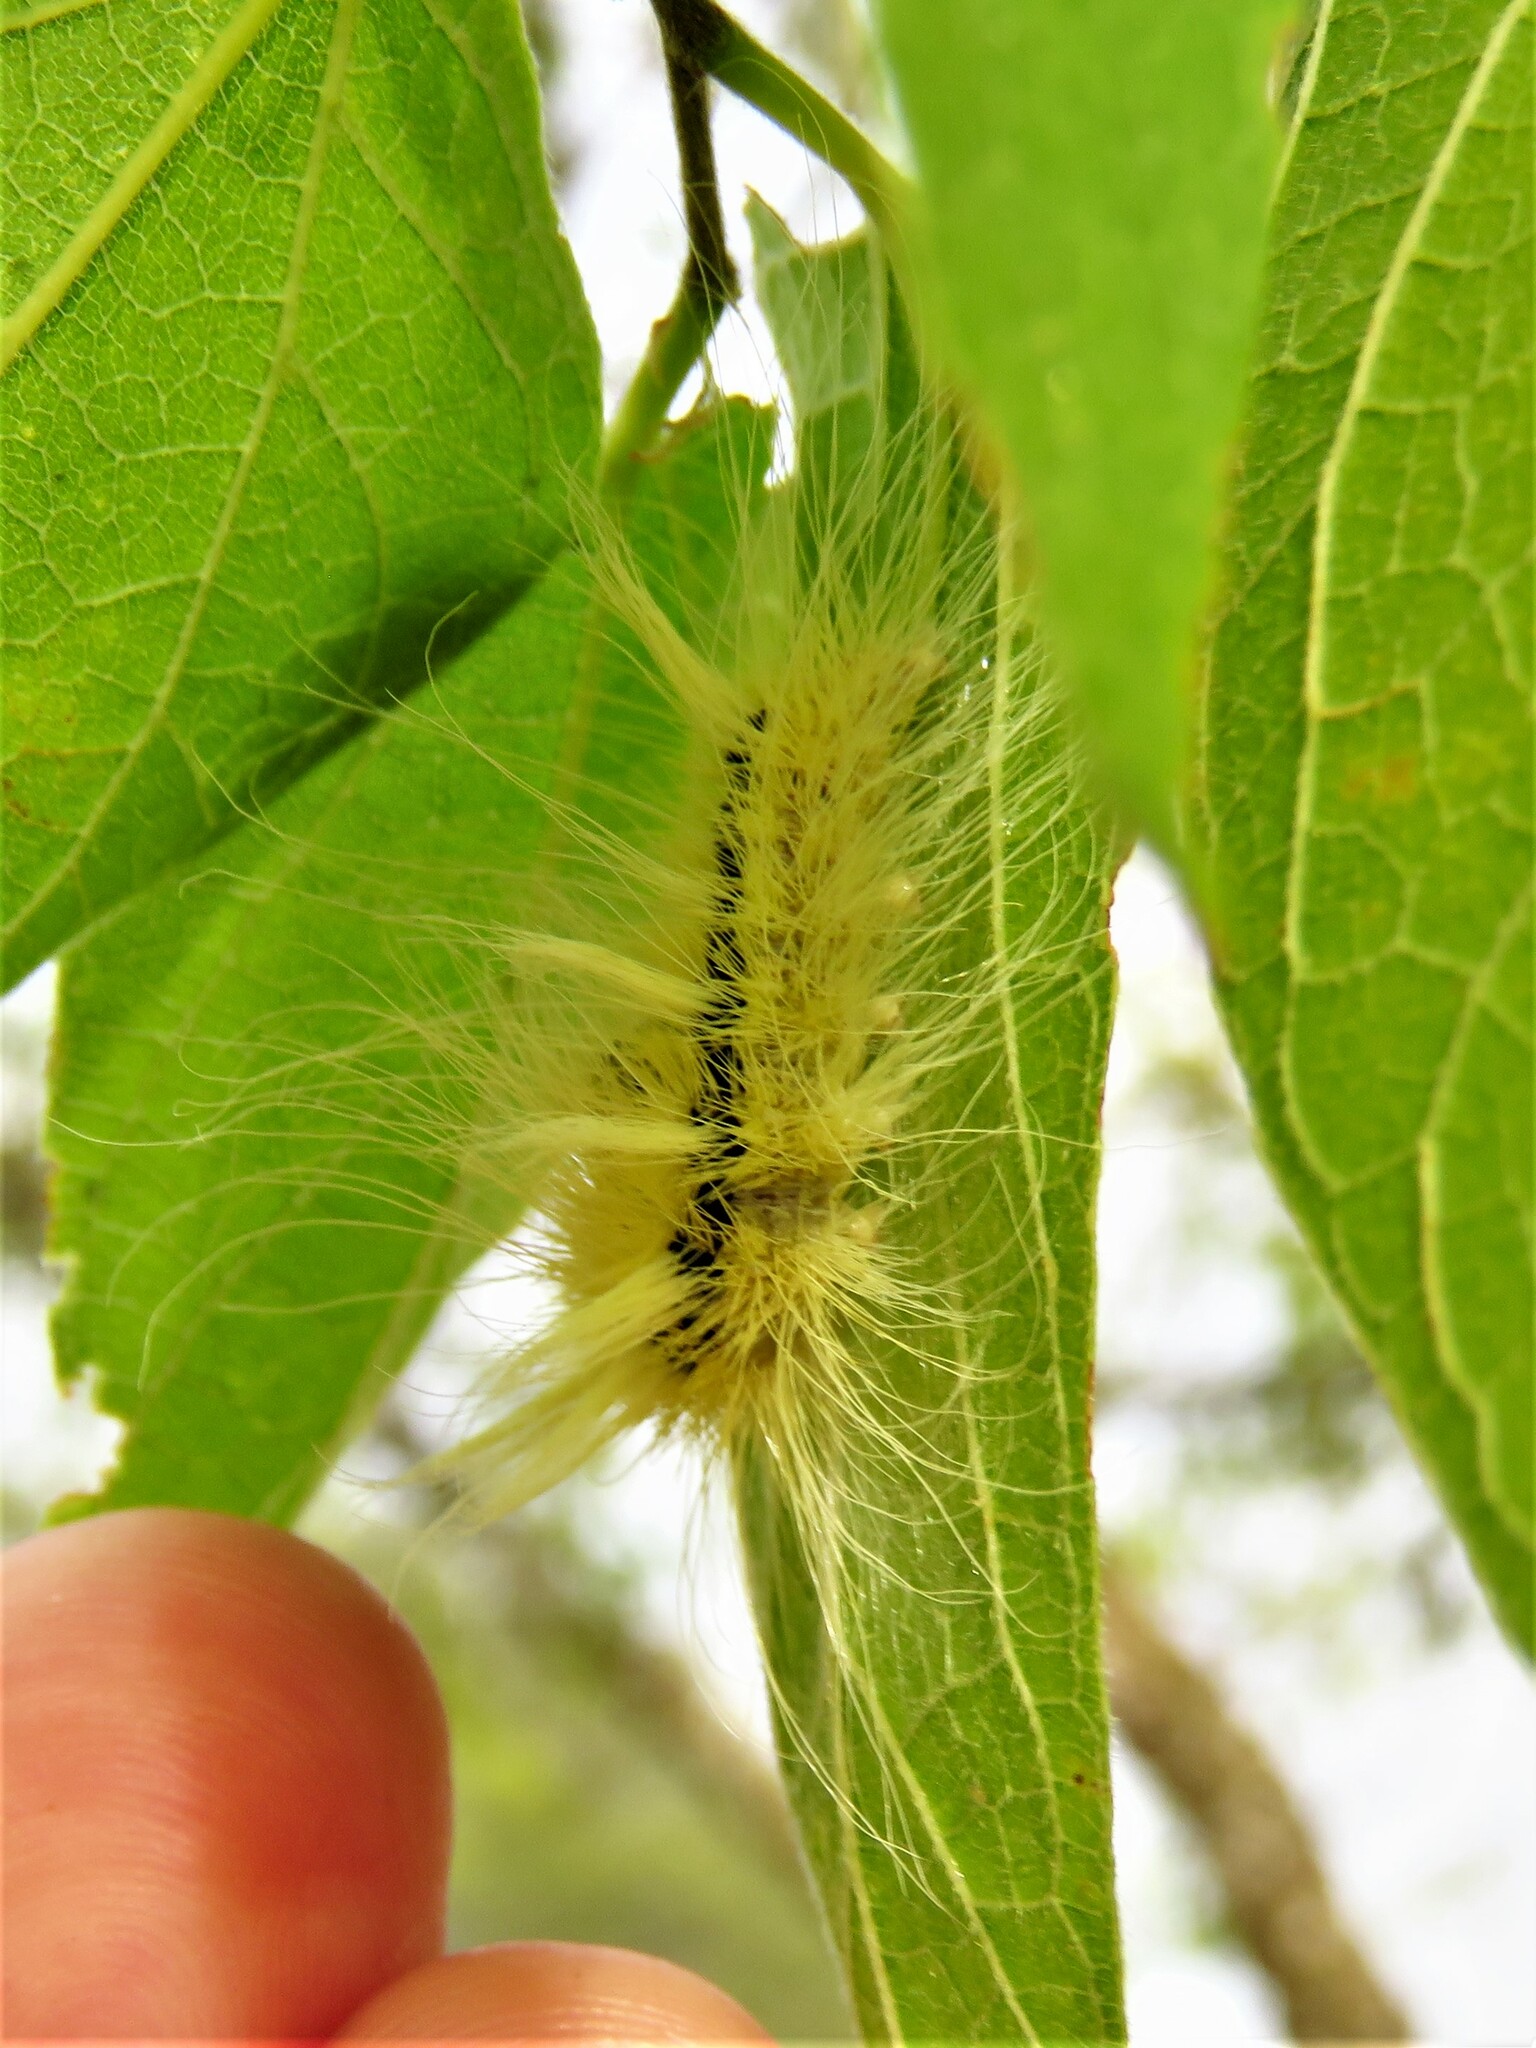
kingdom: Animalia
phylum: Arthropoda
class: Insecta
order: Lepidoptera
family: Noctuidae
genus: Acronicta
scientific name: Acronicta rubricoma
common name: Hackberry dagger
